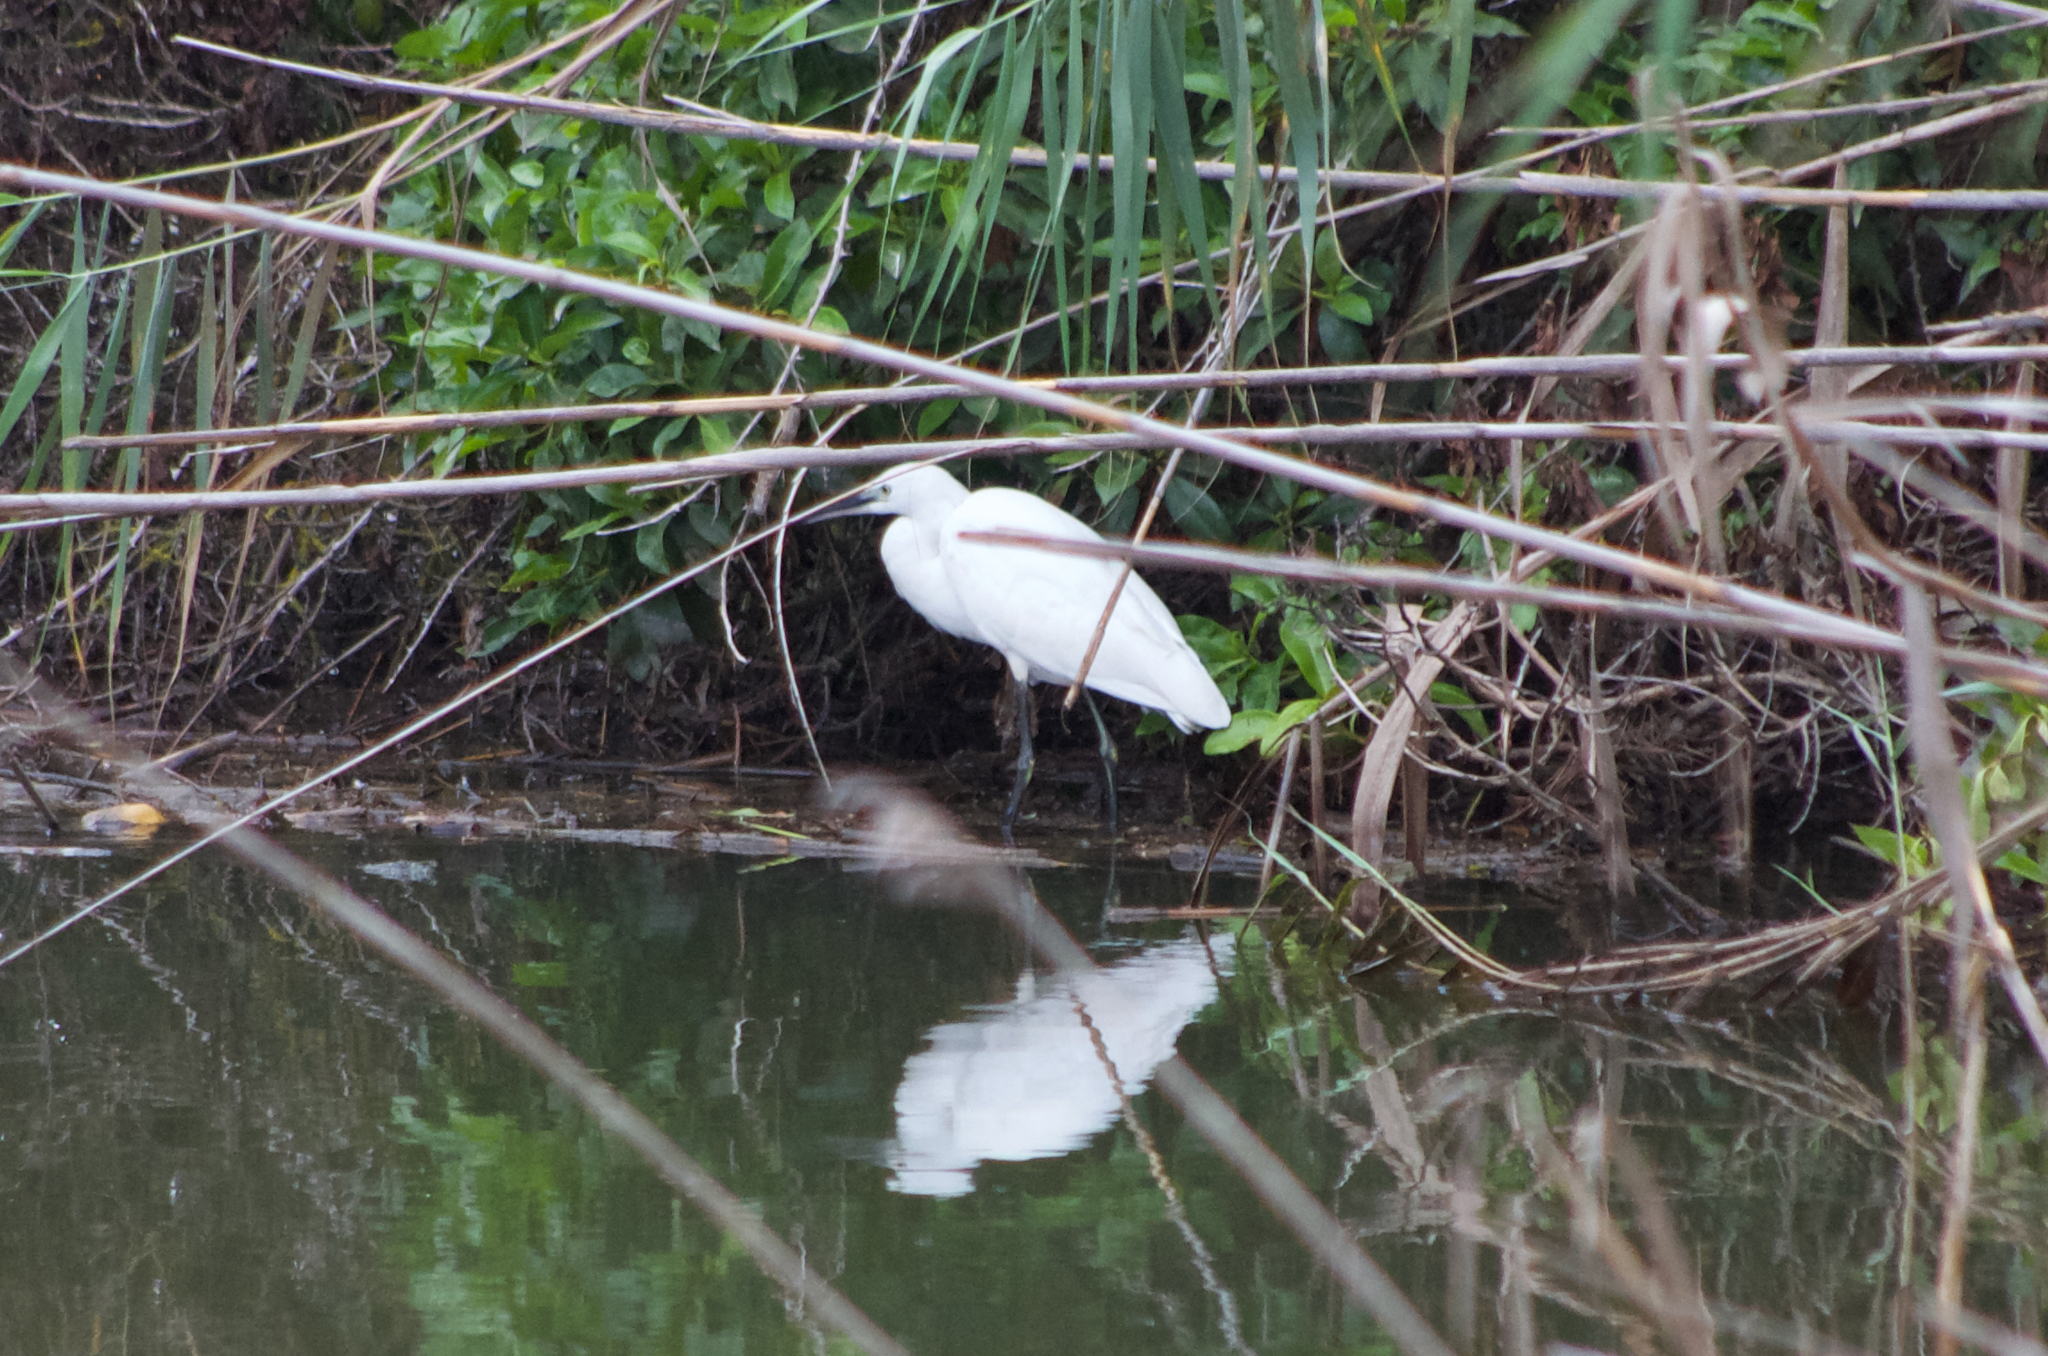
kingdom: Animalia
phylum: Chordata
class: Aves
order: Pelecaniformes
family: Ardeidae
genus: Egretta
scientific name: Egretta garzetta
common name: Little egret
